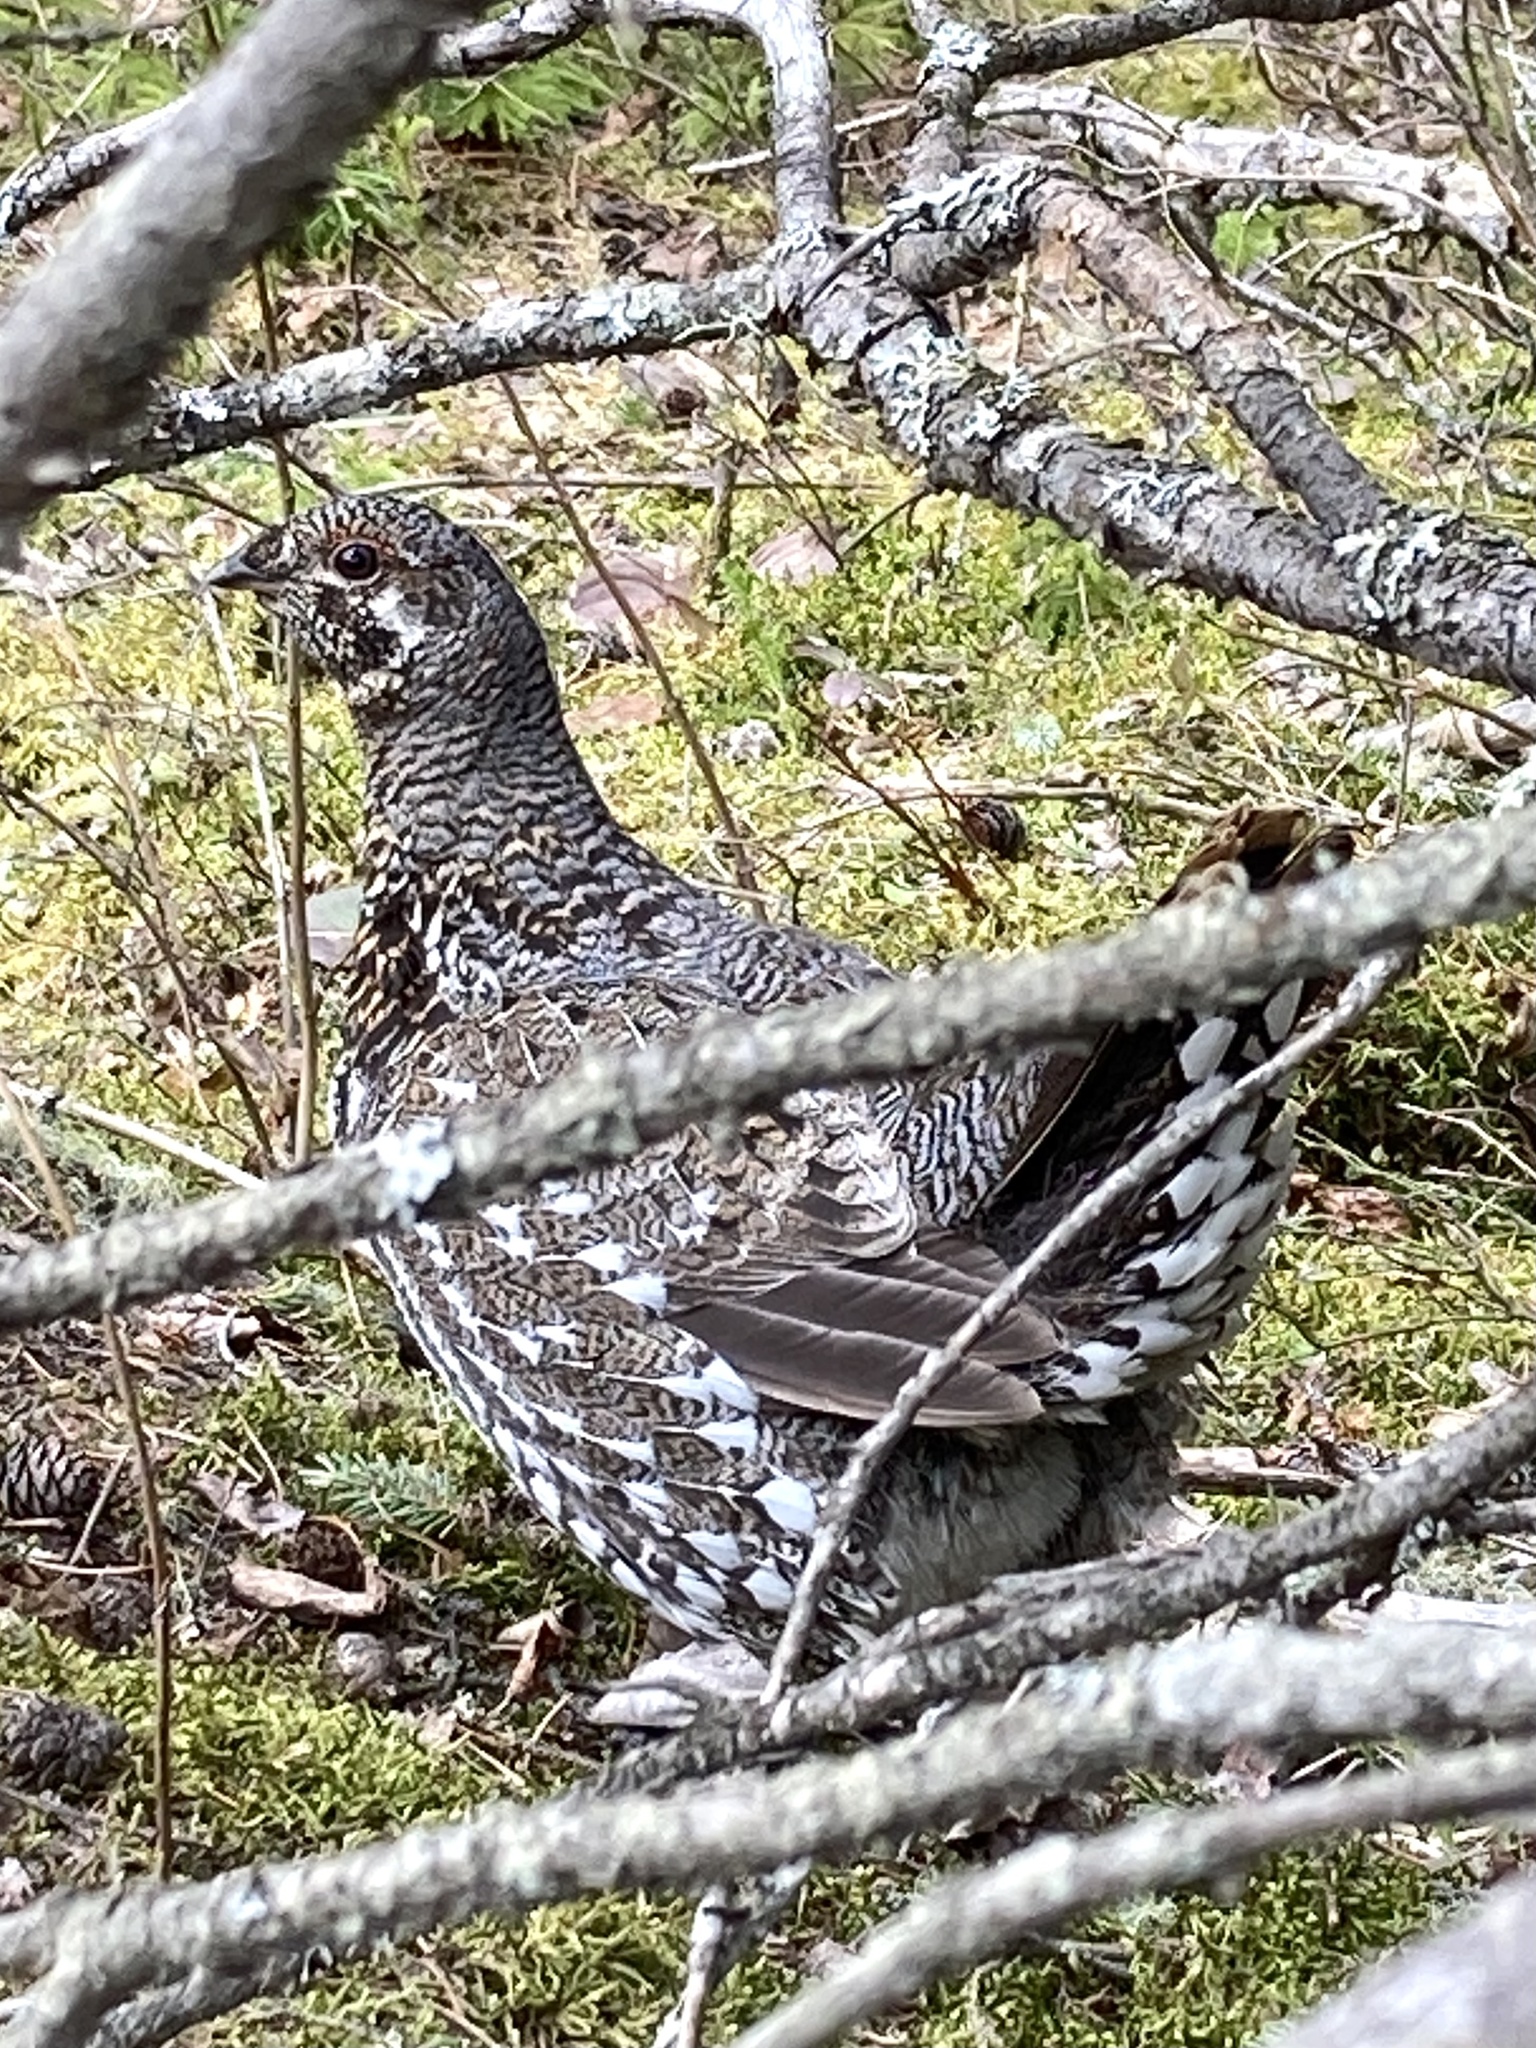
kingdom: Animalia
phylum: Chordata
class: Aves
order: Galliformes
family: Phasianidae
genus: Canachites
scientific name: Canachites canadensis
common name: Spruce grouse
